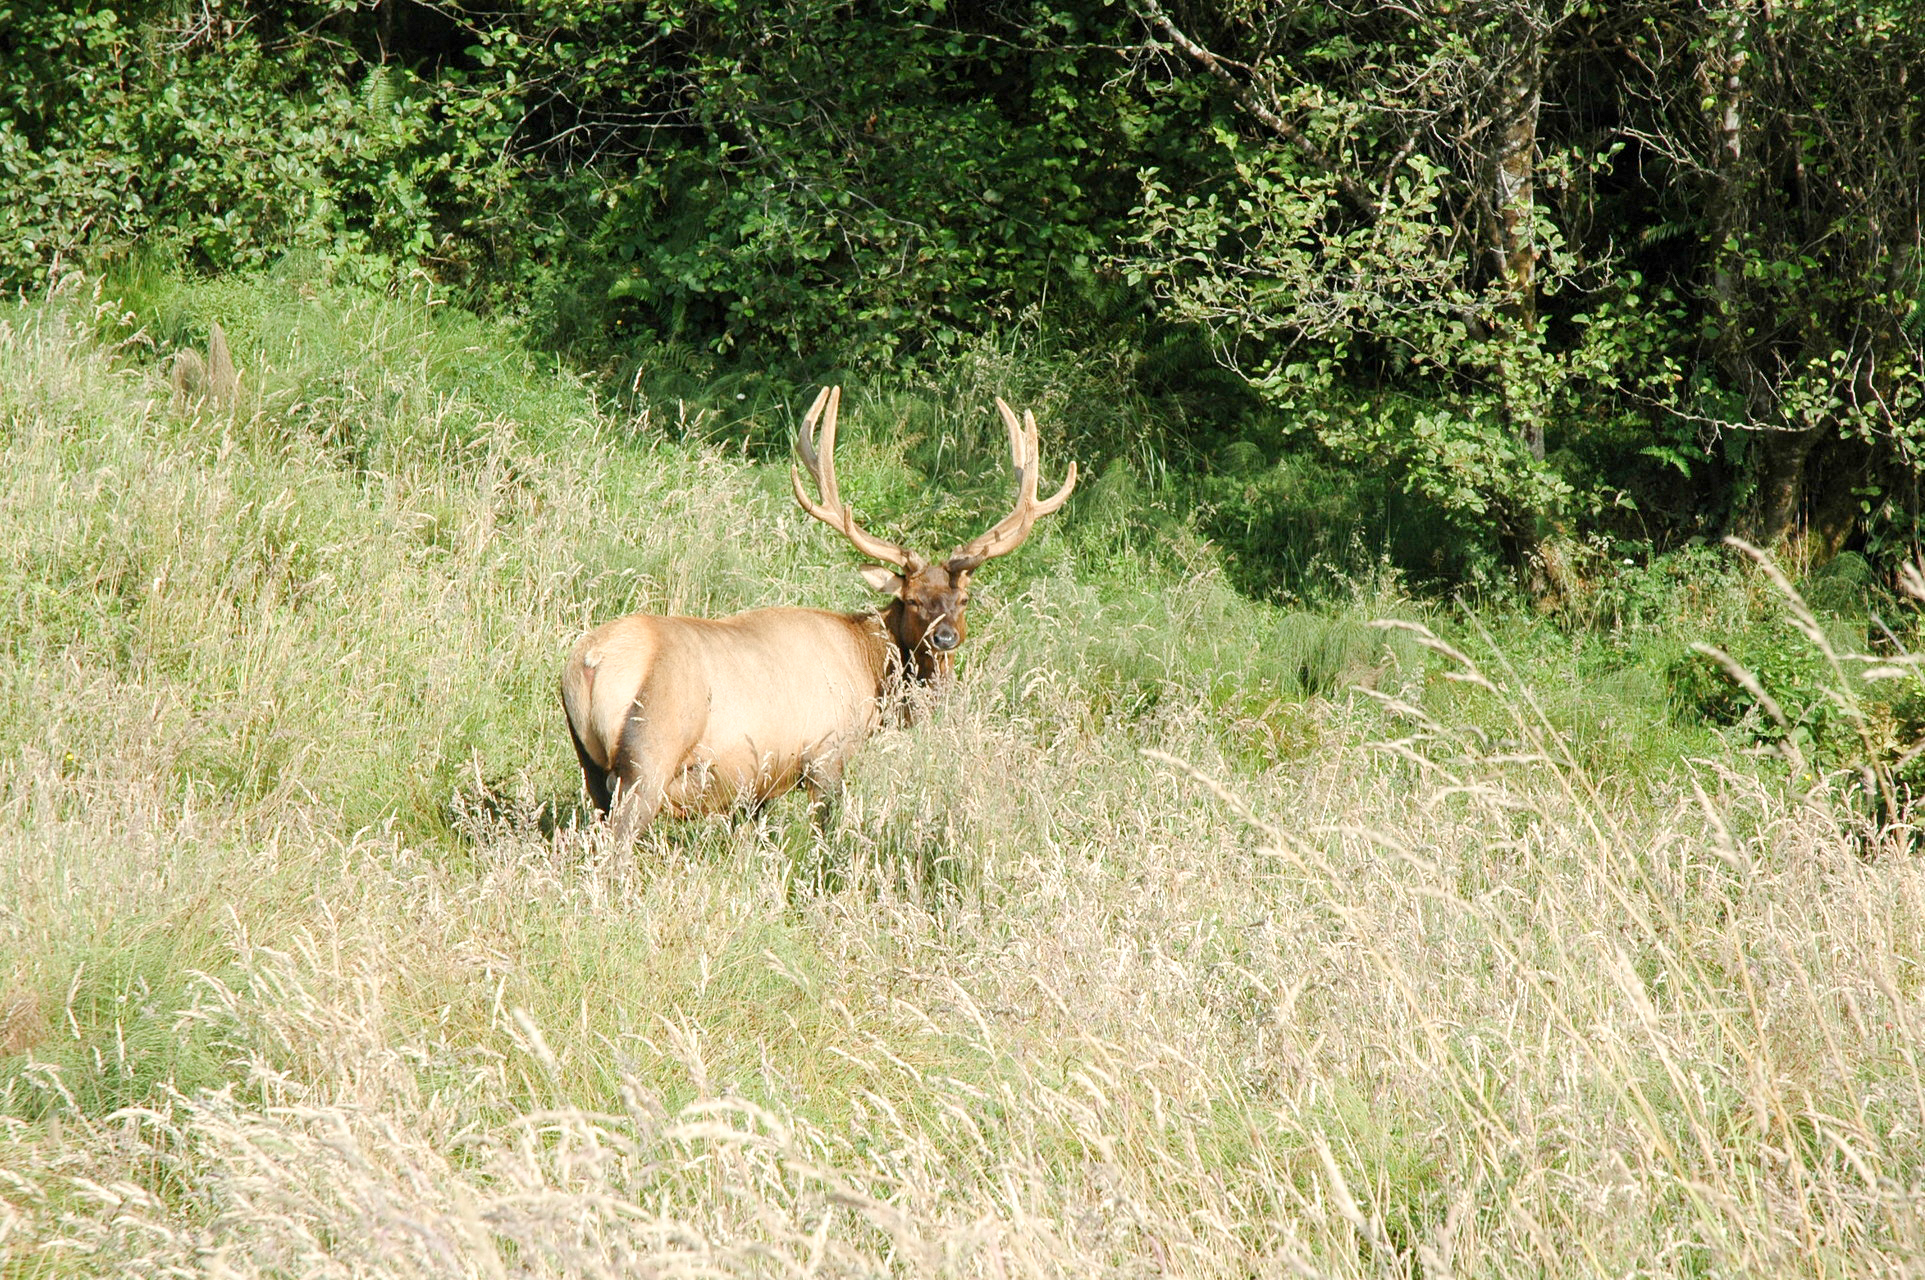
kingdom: Animalia
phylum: Chordata
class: Mammalia
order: Artiodactyla
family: Cervidae
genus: Cervus
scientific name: Cervus elaphus
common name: Red deer
